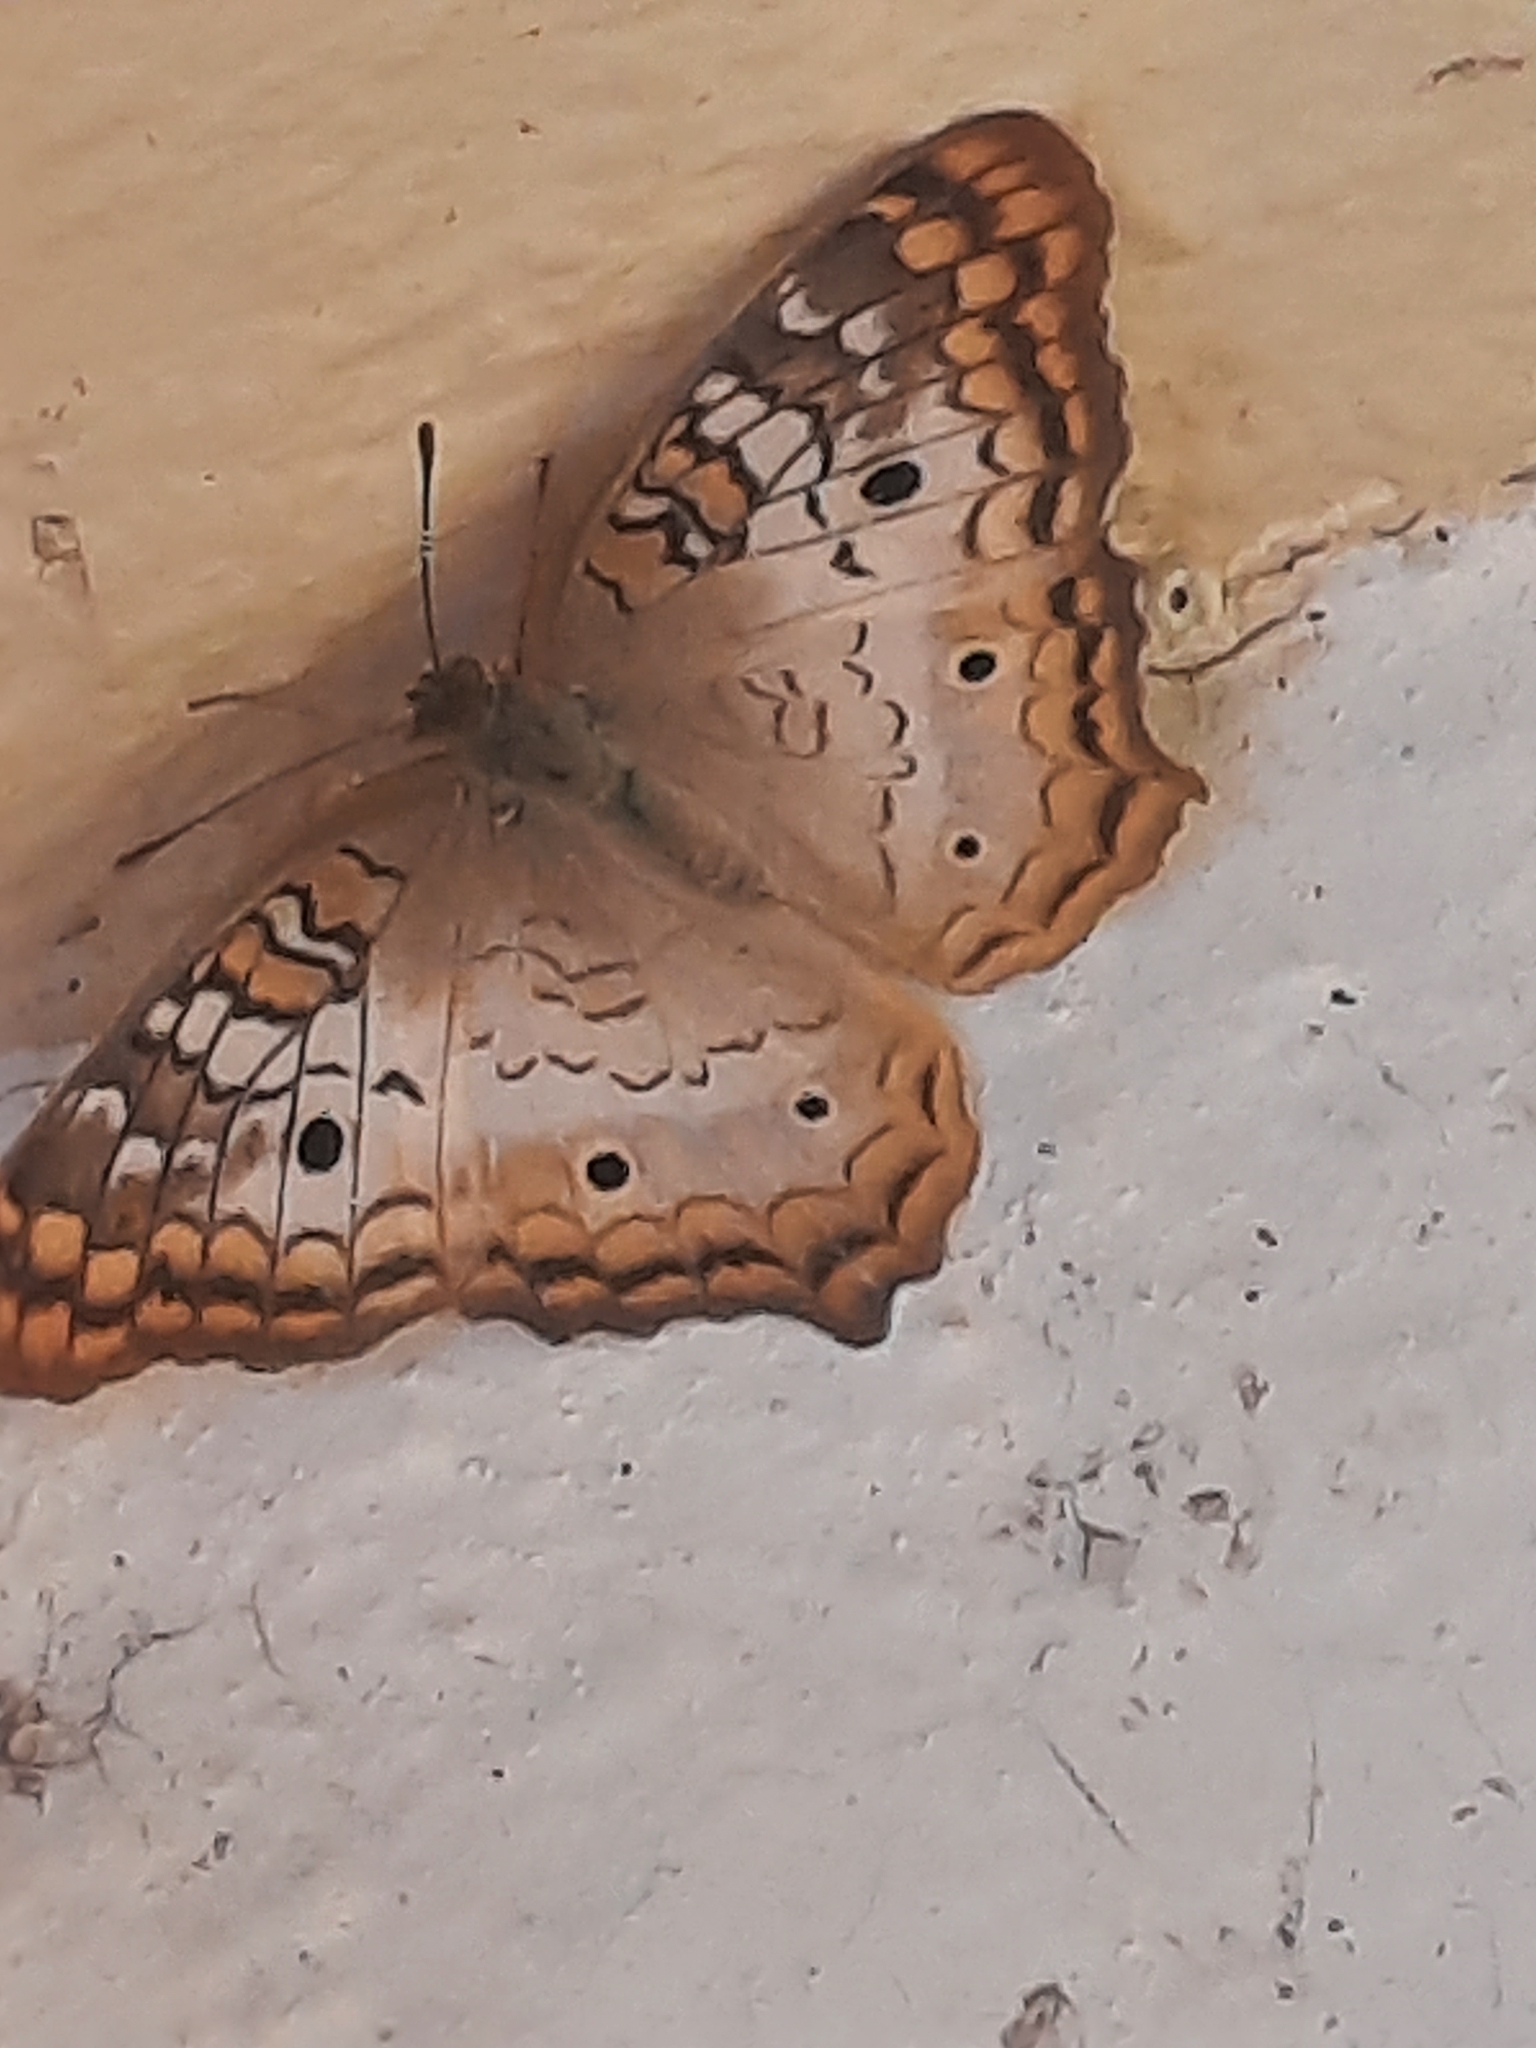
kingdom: Animalia
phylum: Arthropoda
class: Insecta
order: Lepidoptera
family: Nymphalidae
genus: Anartia
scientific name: Anartia jatrophae
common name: White peacock
